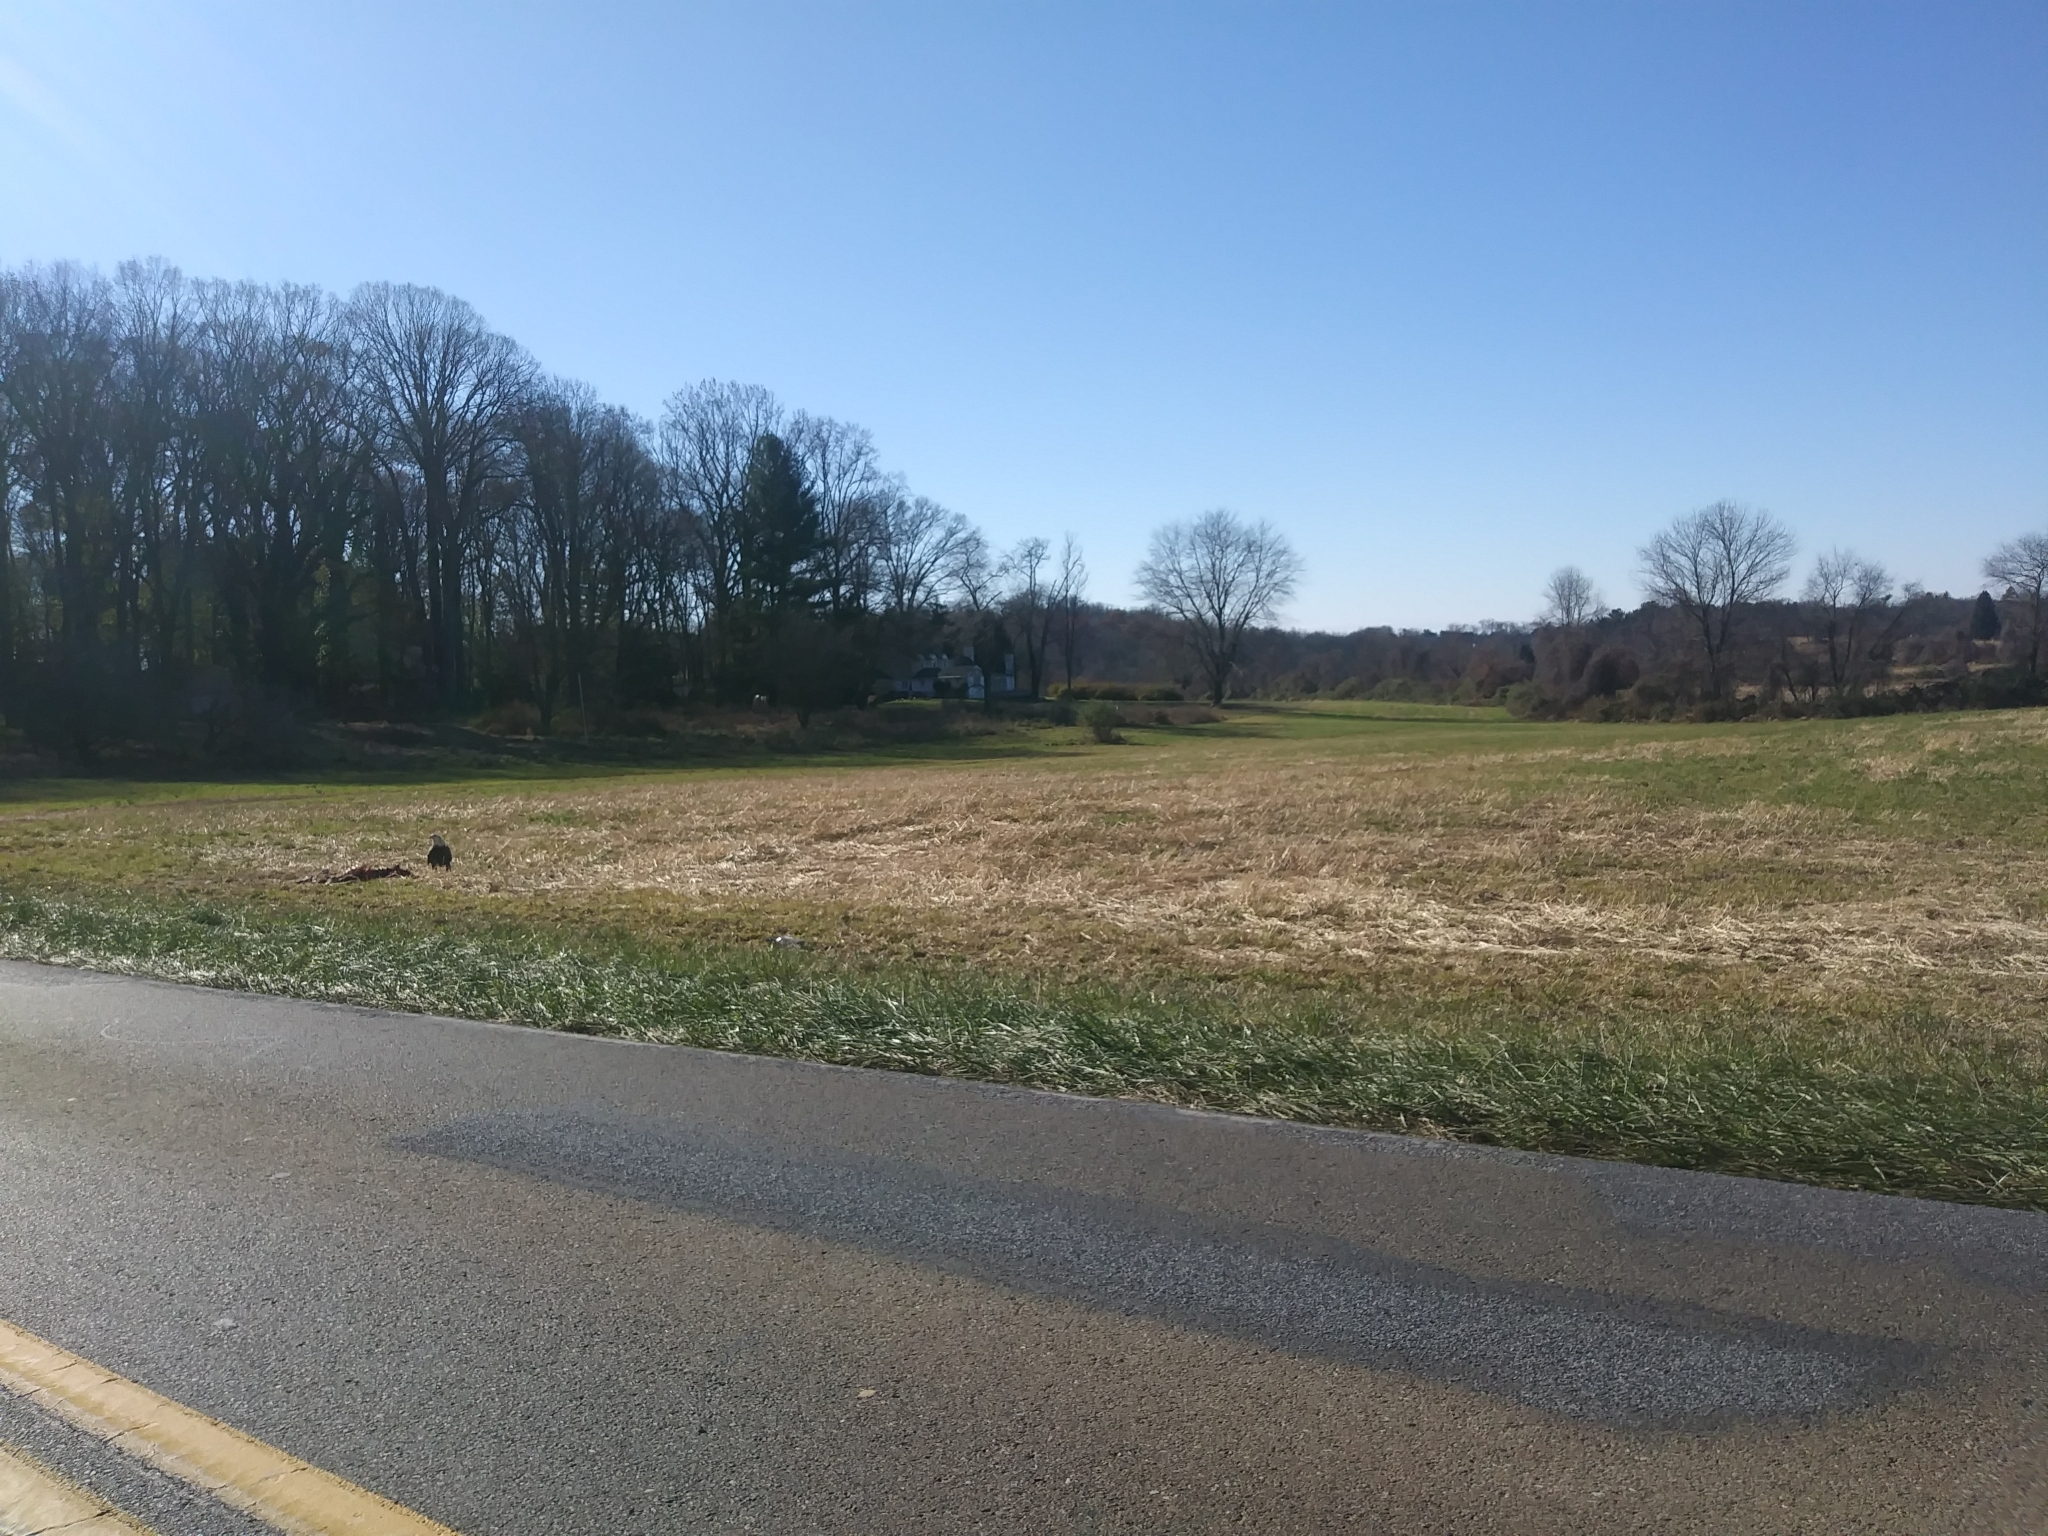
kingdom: Animalia
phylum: Chordata
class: Aves
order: Accipitriformes
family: Accipitridae
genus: Haliaeetus
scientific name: Haliaeetus leucocephalus
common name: Bald eagle
